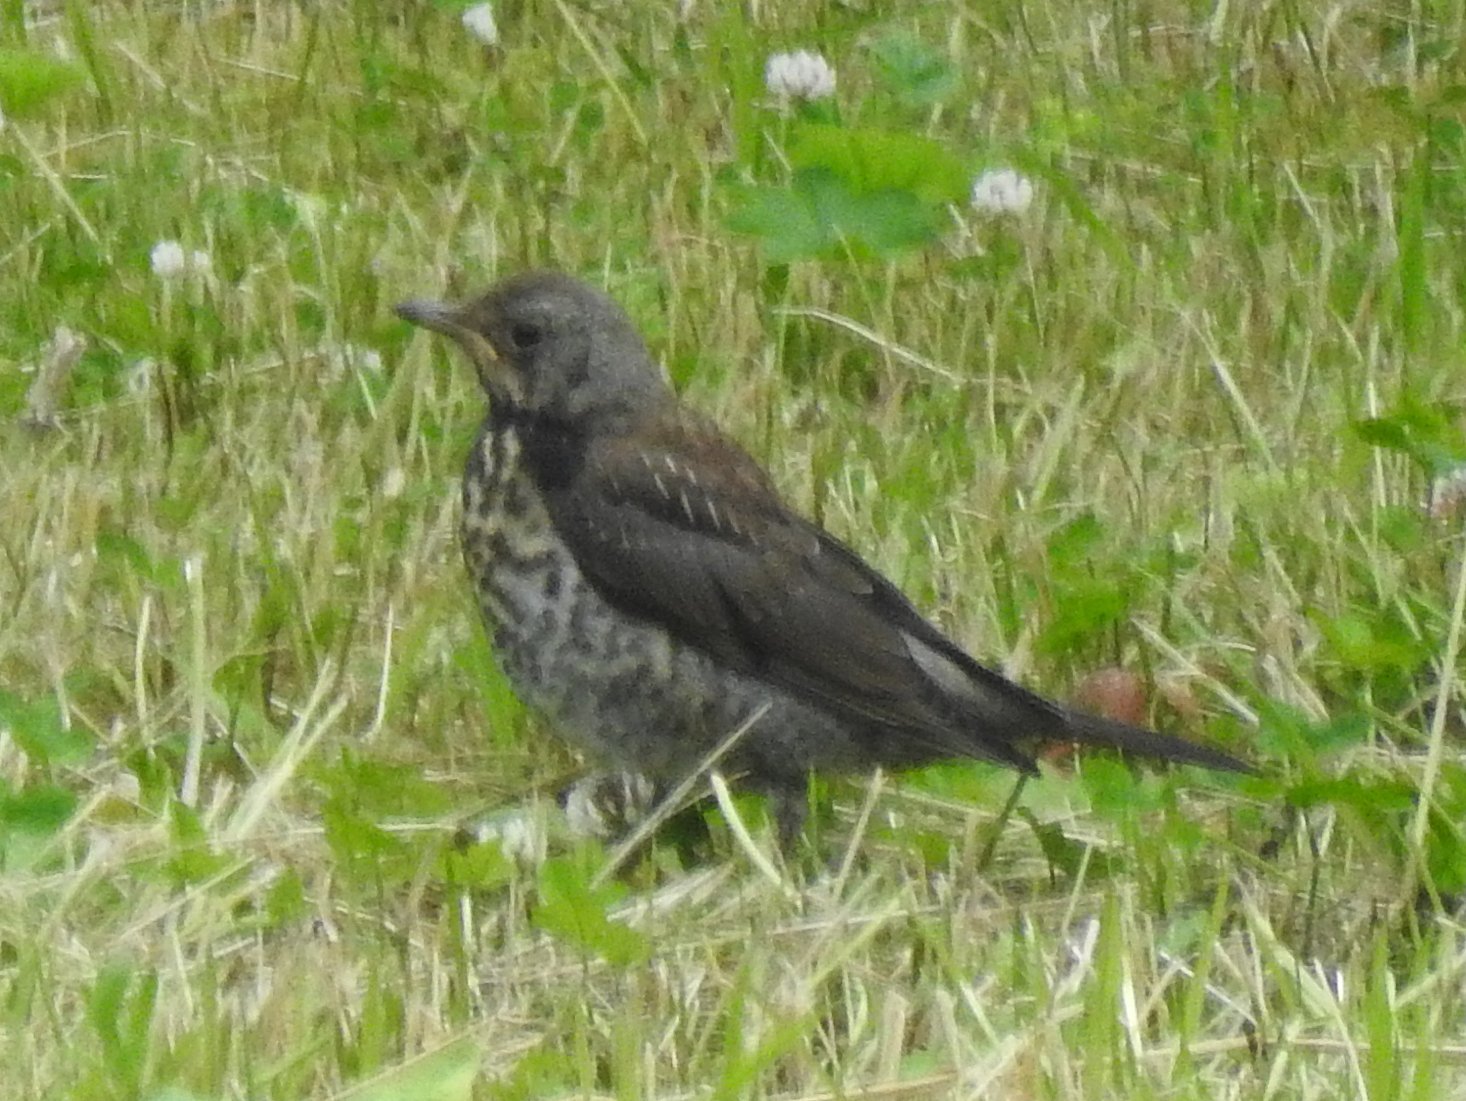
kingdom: Animalia
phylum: Chordata
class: Aves
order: Passeriformes
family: Turdidae
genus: Turdus
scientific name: Turdus pilaris
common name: Fieldfare
